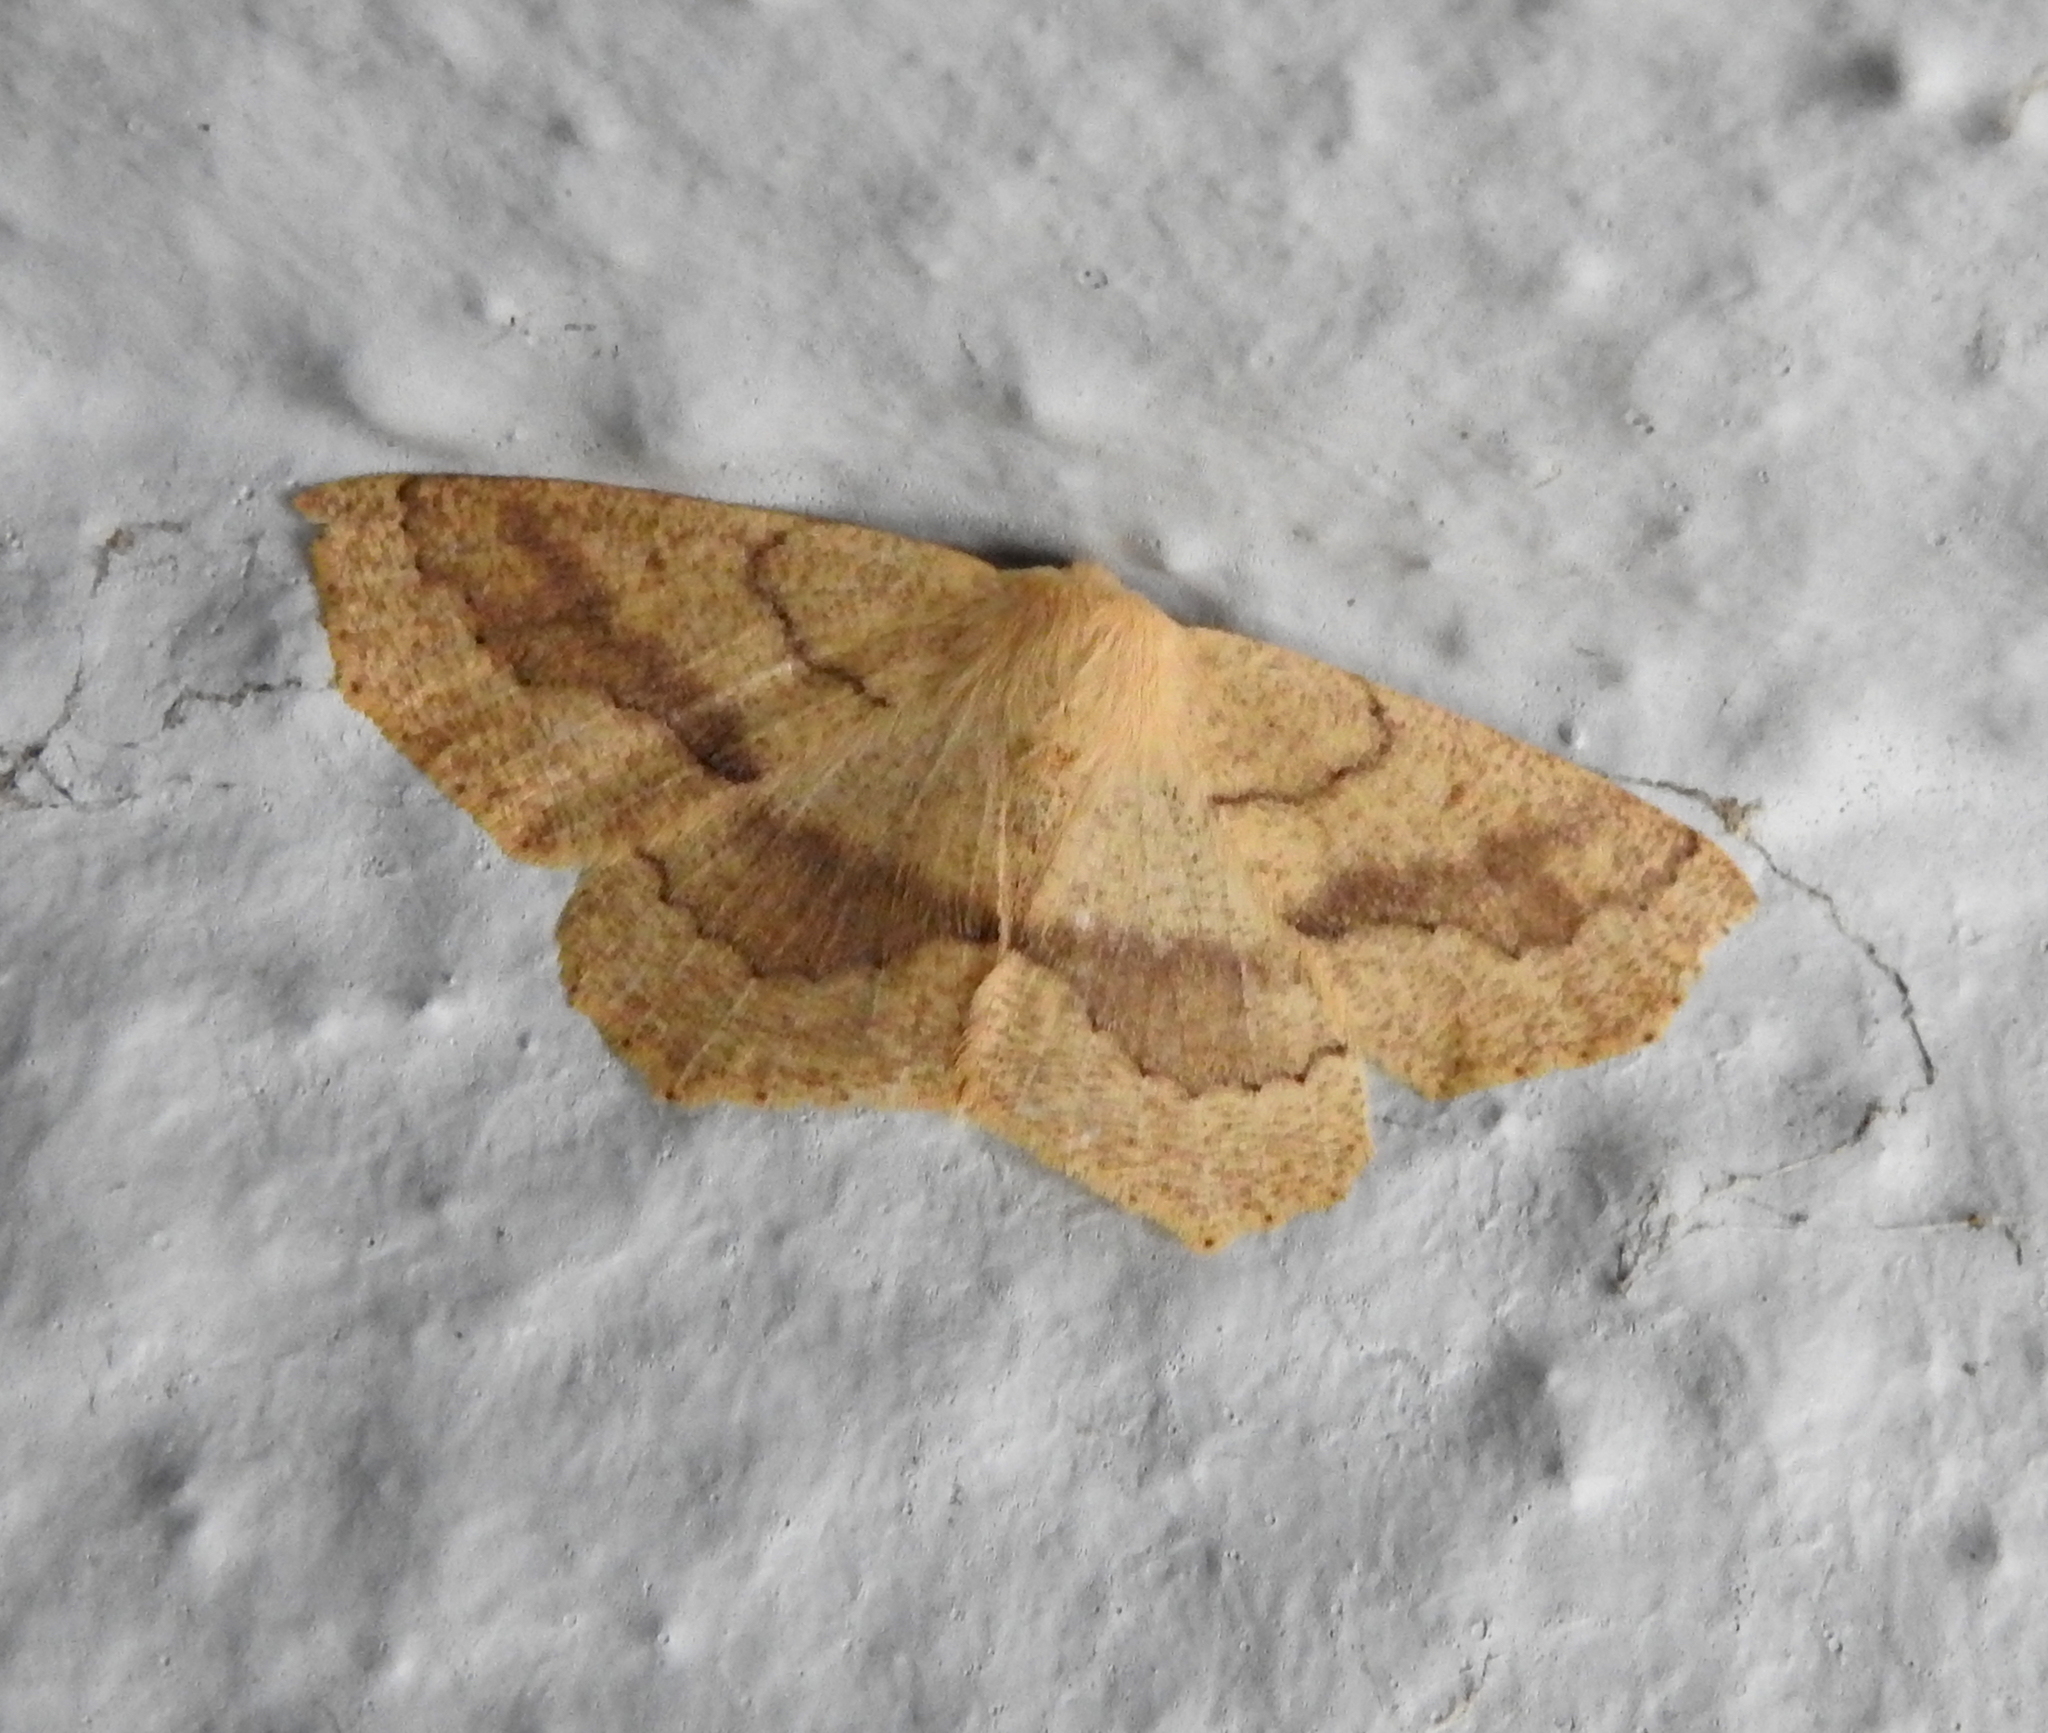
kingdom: Animalia
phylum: Arthropoda
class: Insecta
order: Lepidoptera
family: Geometridae
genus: Sabulodes
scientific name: Sabulodes aegrotata
